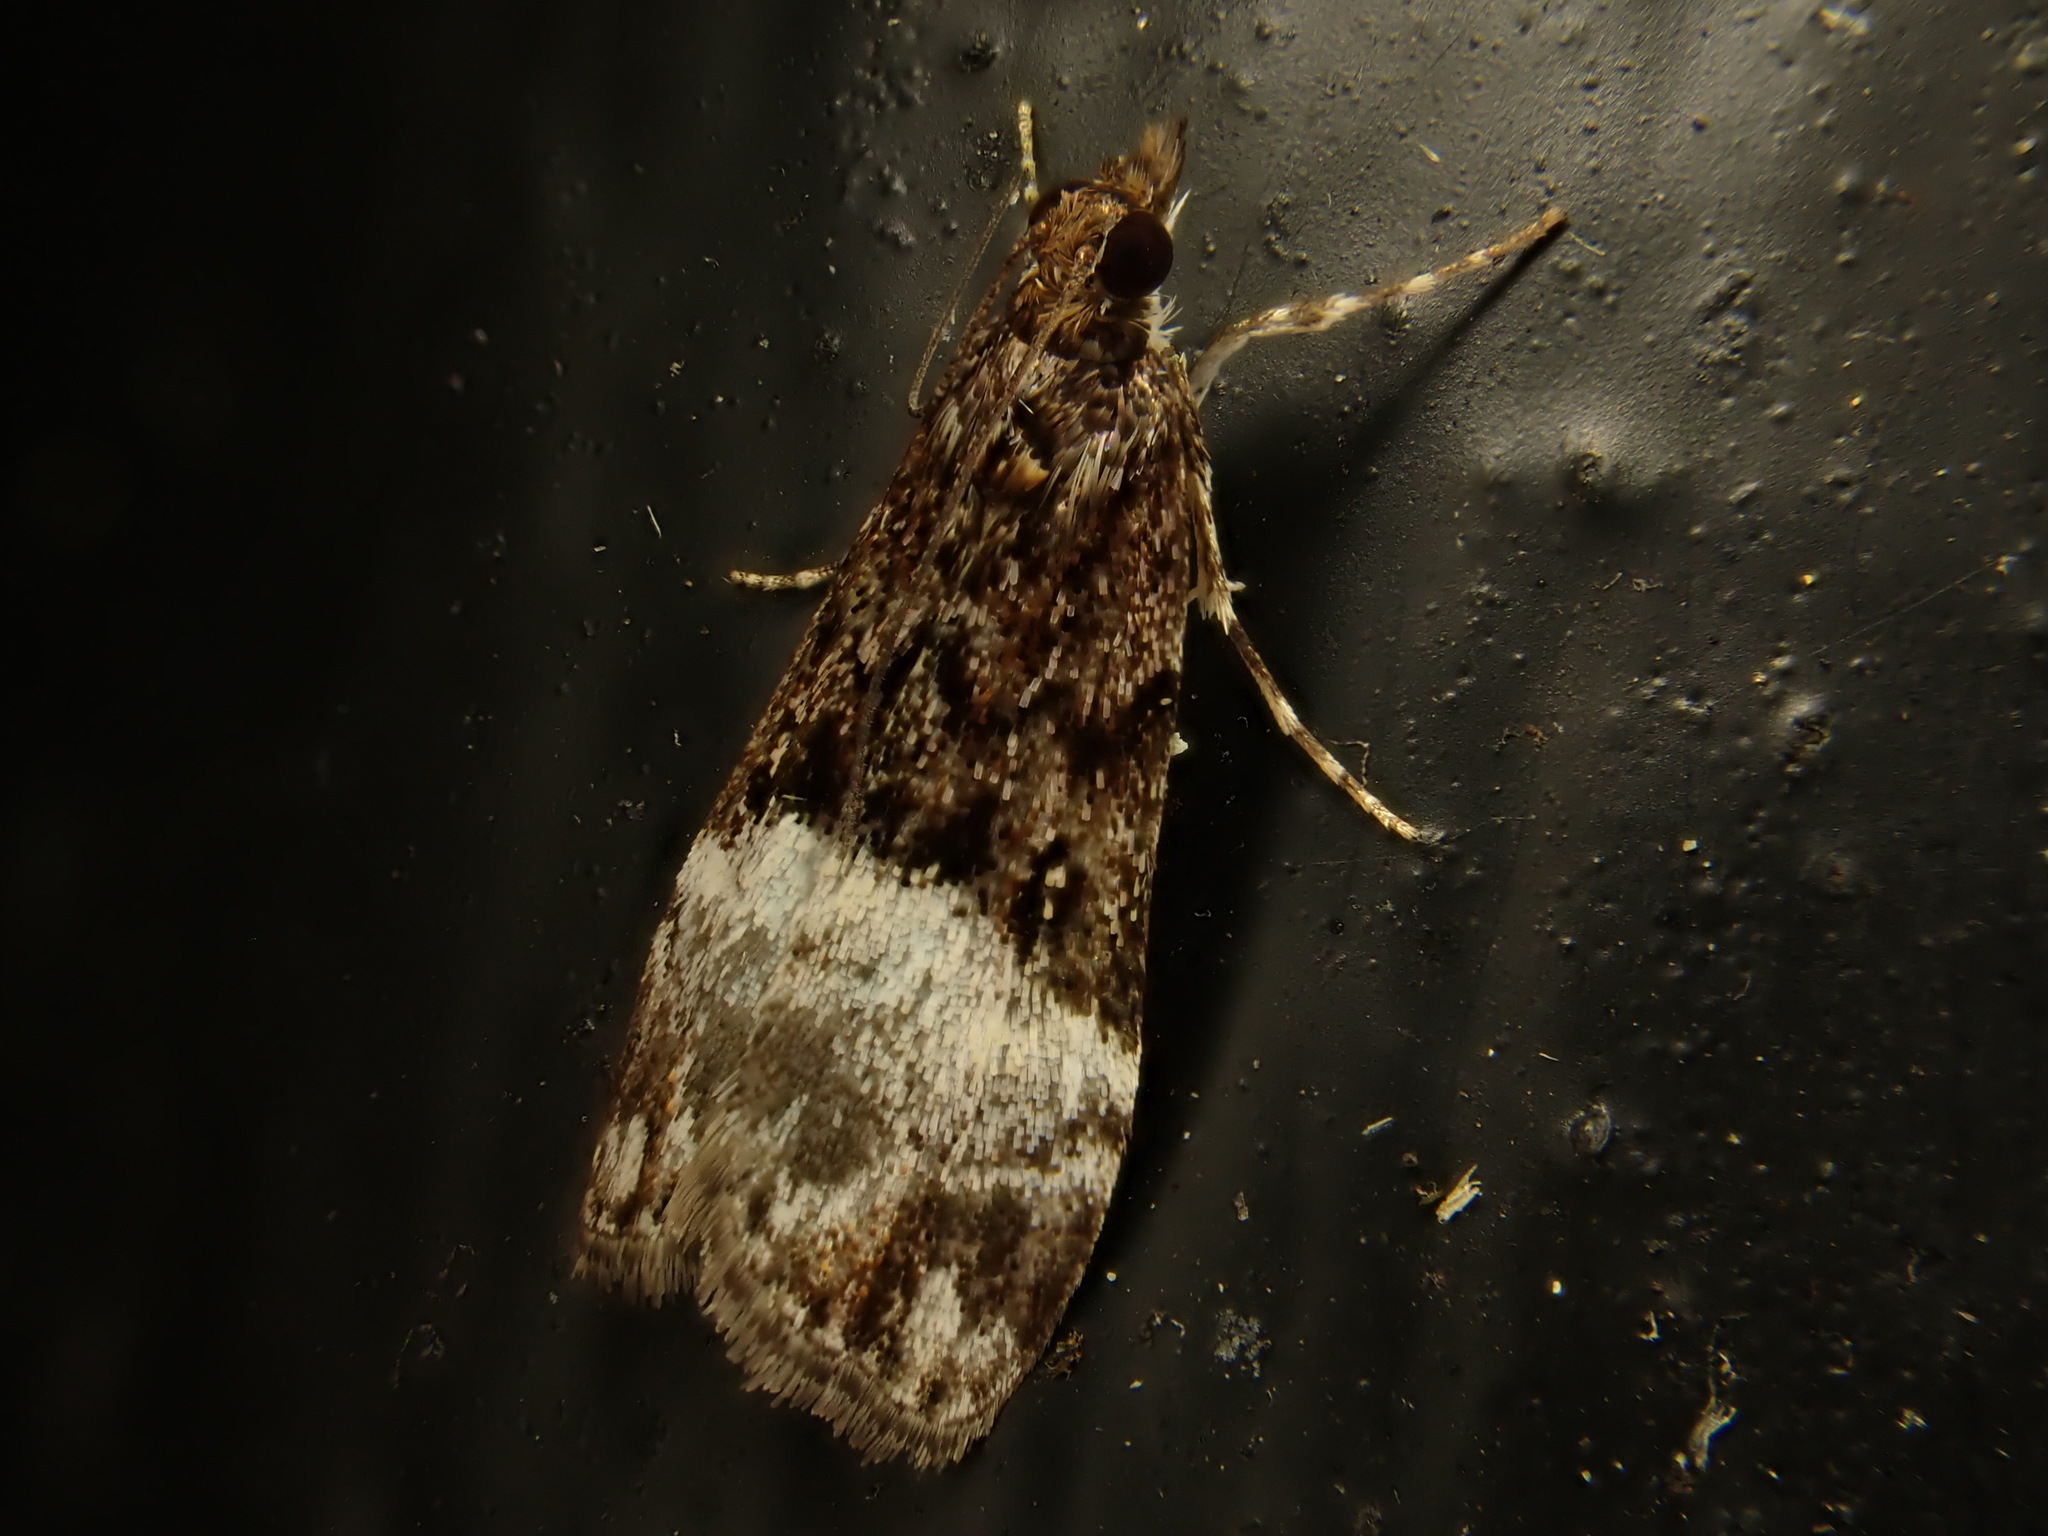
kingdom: Animalia
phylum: Arthropoda
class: Insecta
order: Lepidoptera
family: Crambidae
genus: Scoparia
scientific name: Scoparia minusculalis
